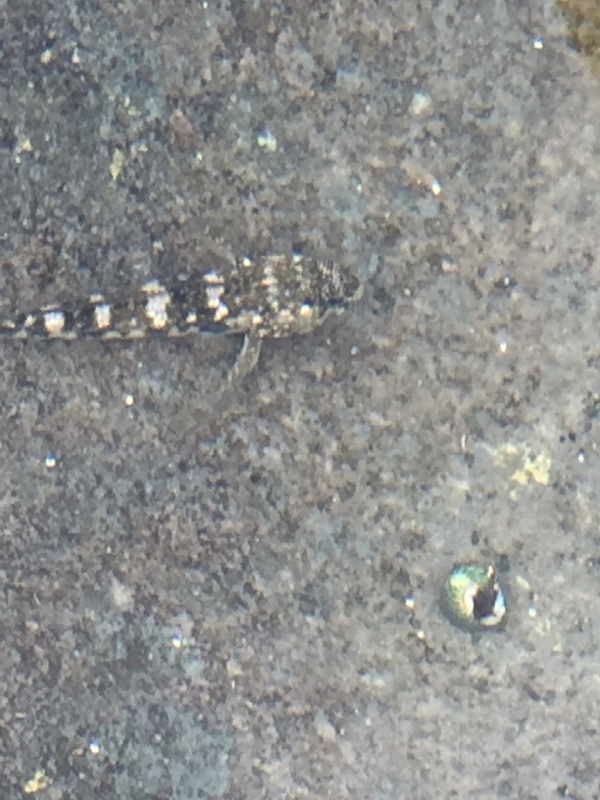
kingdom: Animalia
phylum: Chordata
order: Perciformes
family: Gobiidae
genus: Mauligobius
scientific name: Mauligobius maderensis
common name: Rock goby
